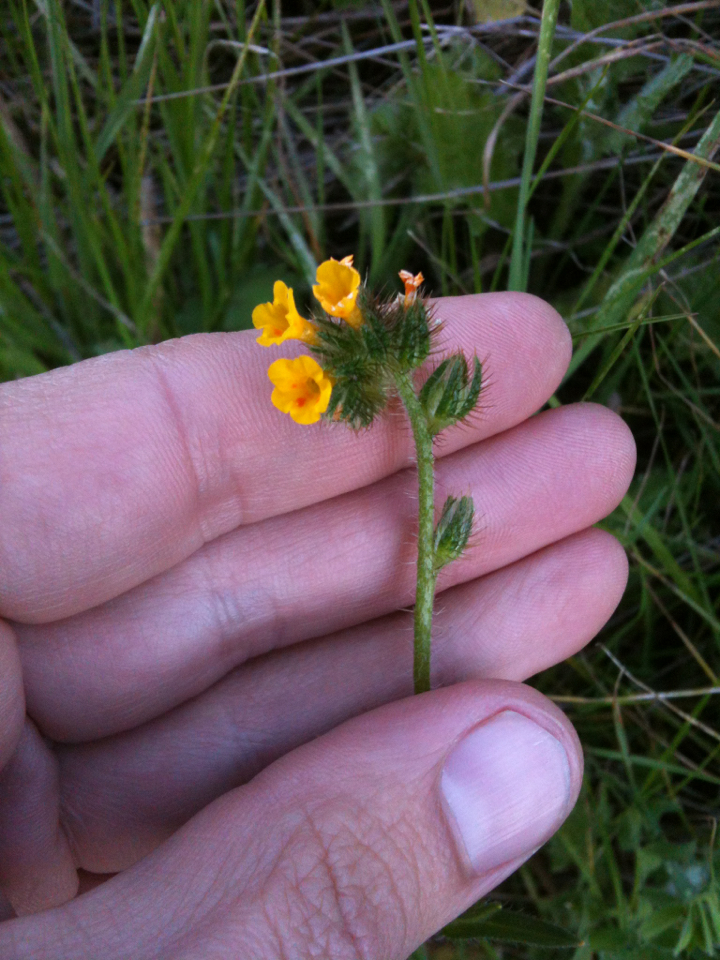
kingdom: Plantae
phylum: Tracheophyta
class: Magnoliopsida
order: Boraginales
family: Boraginaceae
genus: Amsinckia
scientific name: Amsinckia menziesii
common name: Menzies' fiddleneck
